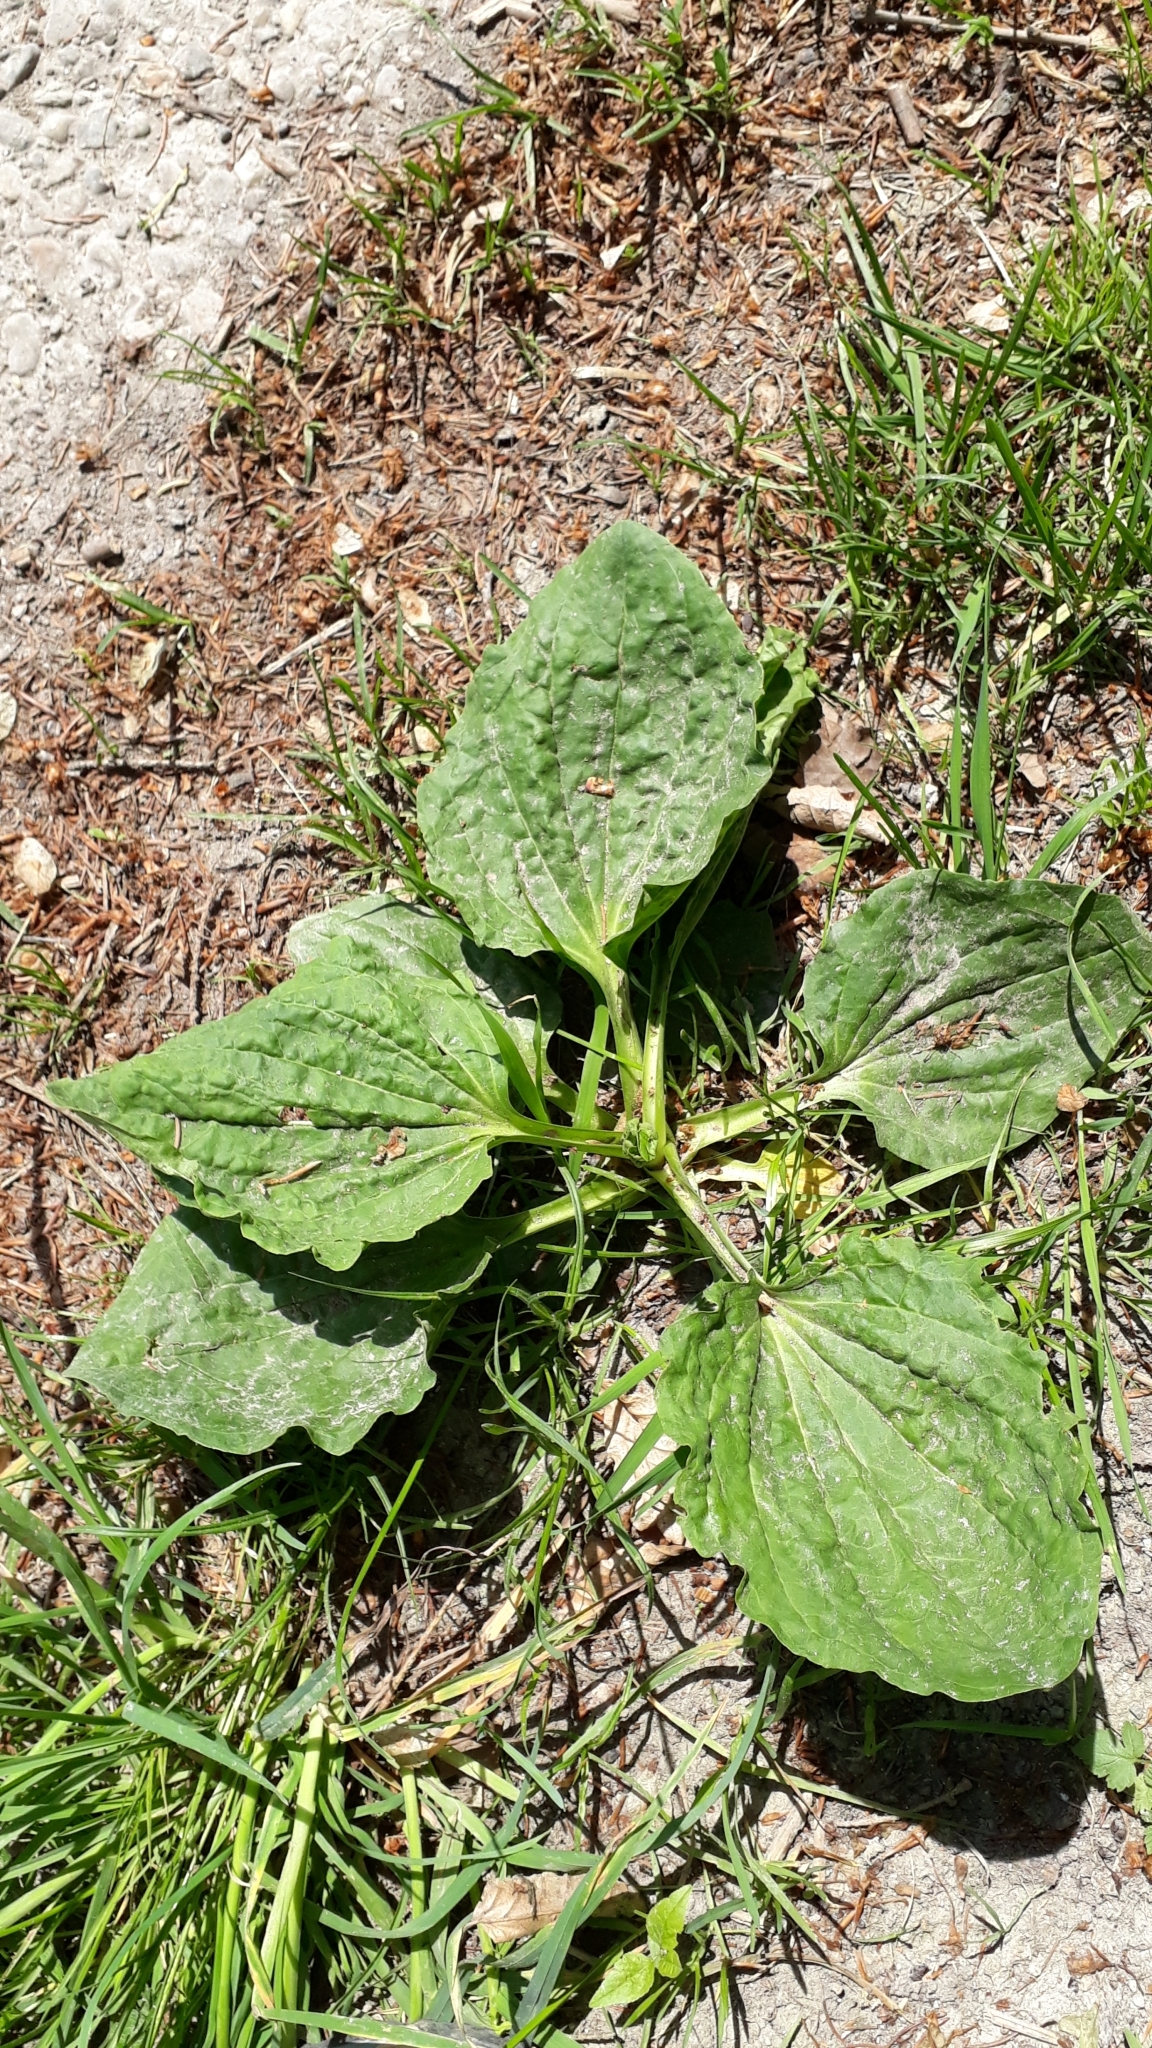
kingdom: Plantae
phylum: Tracheophyta
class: Magnoliopsida
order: Lamiales
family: Plantaginaceae
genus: Plantago
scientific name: Plantago major
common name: Common plantain
